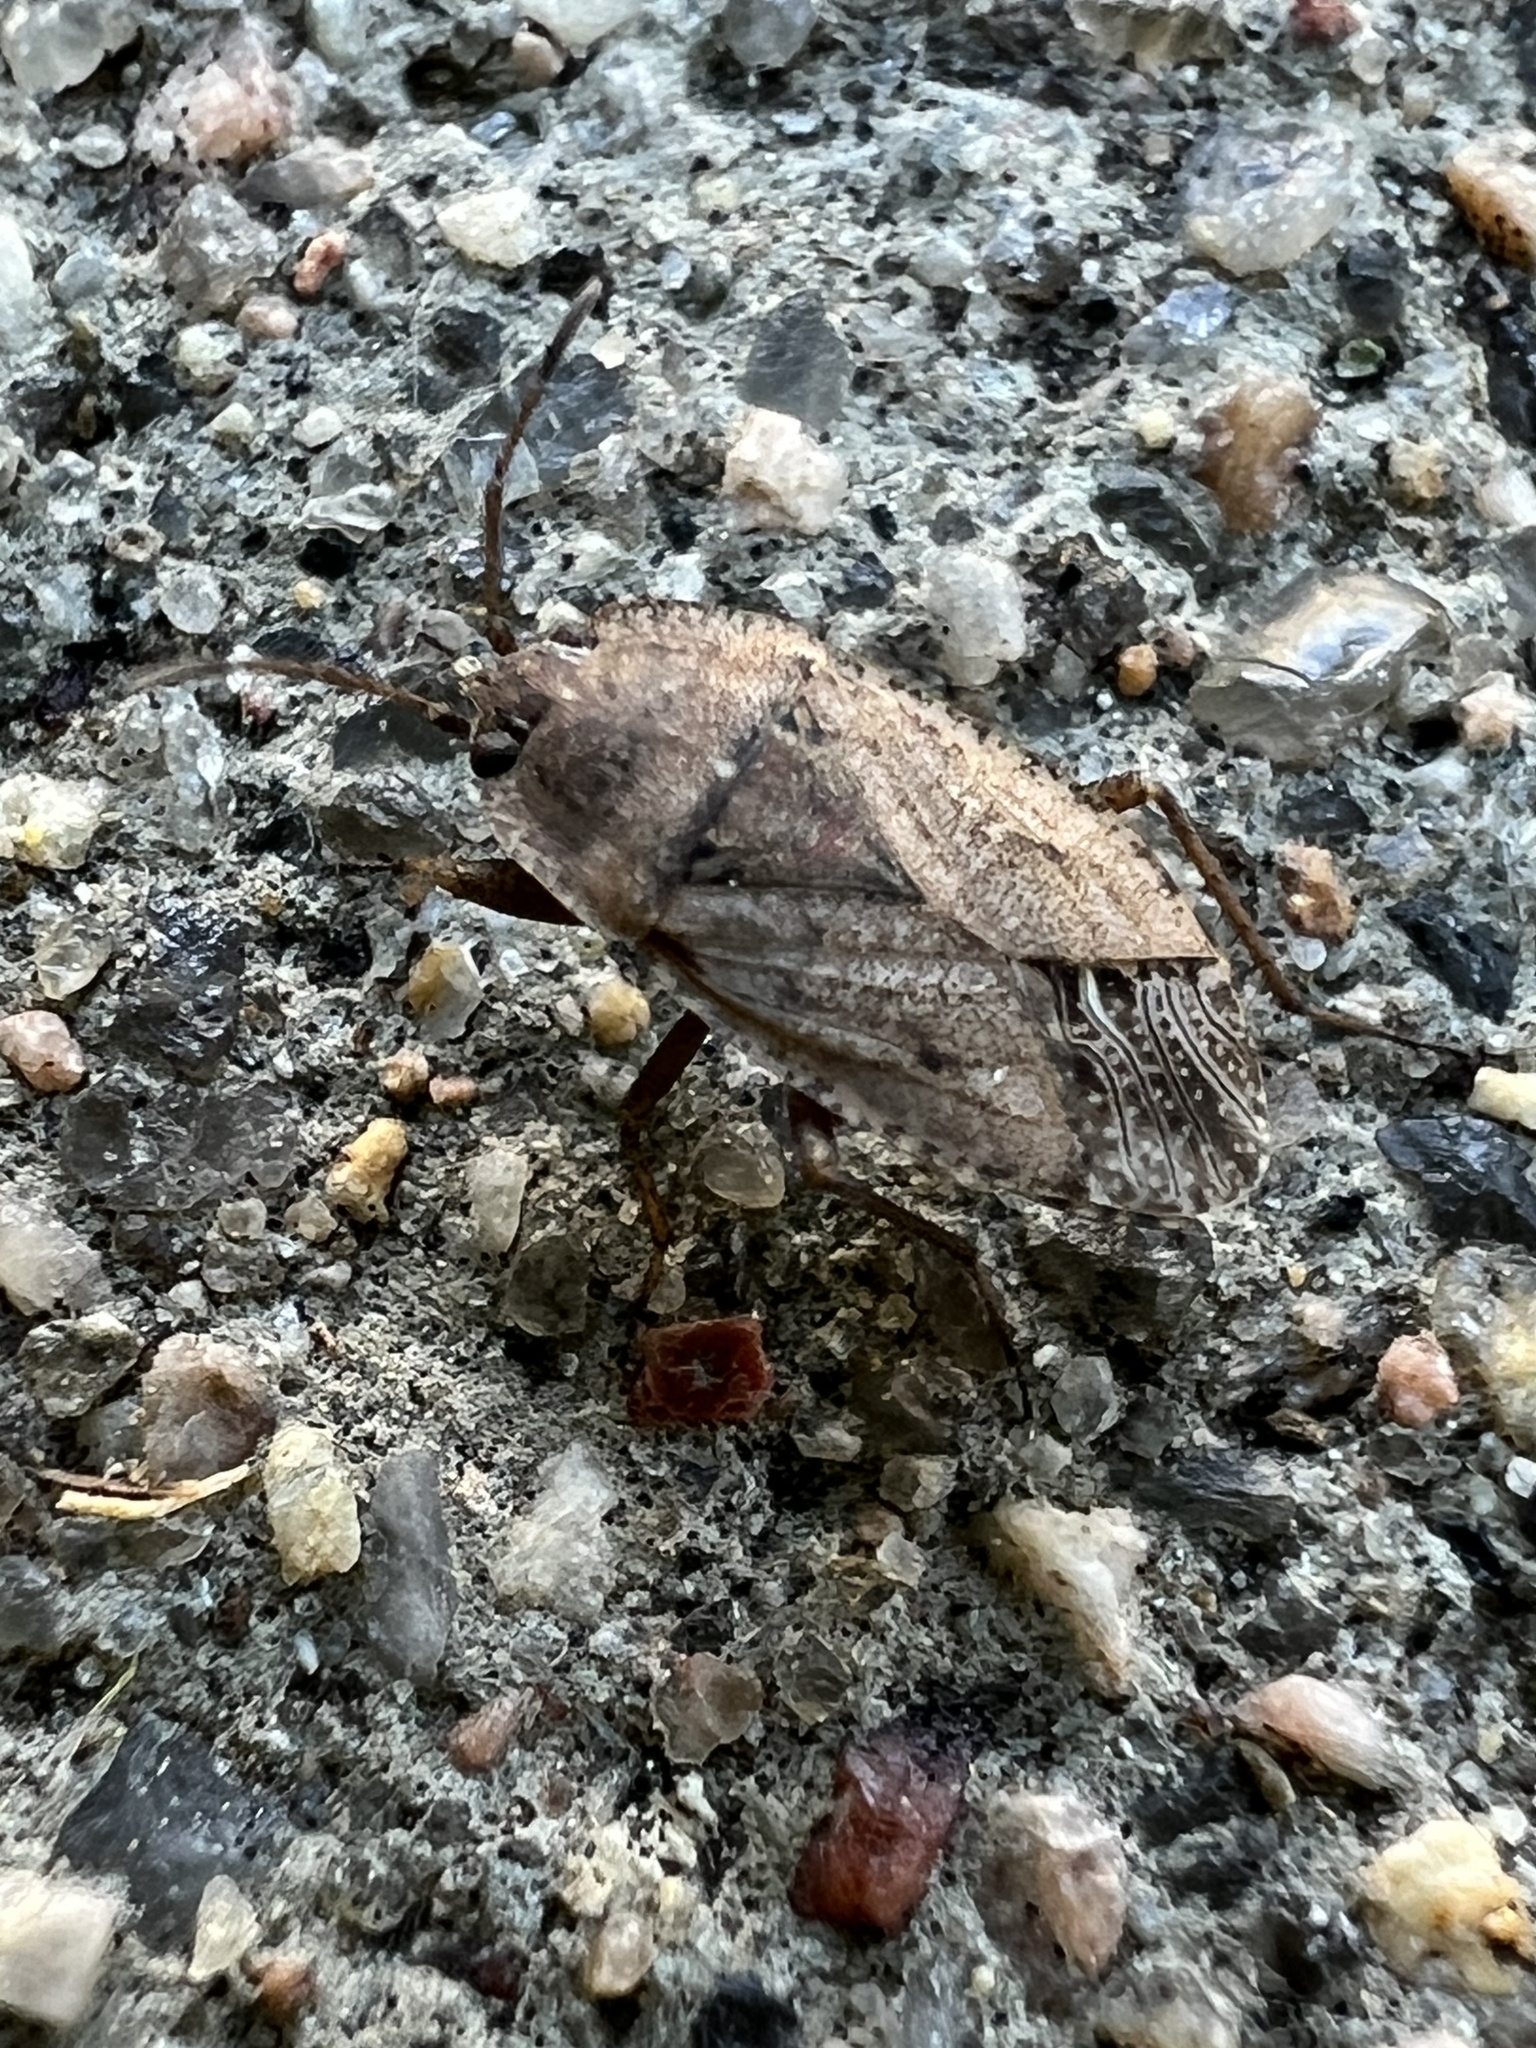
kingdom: Animalia
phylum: Arthropoda
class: Insecta
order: Hemiptera
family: Rhyparochromidae
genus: Emblethis
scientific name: Emblethis vicarius
